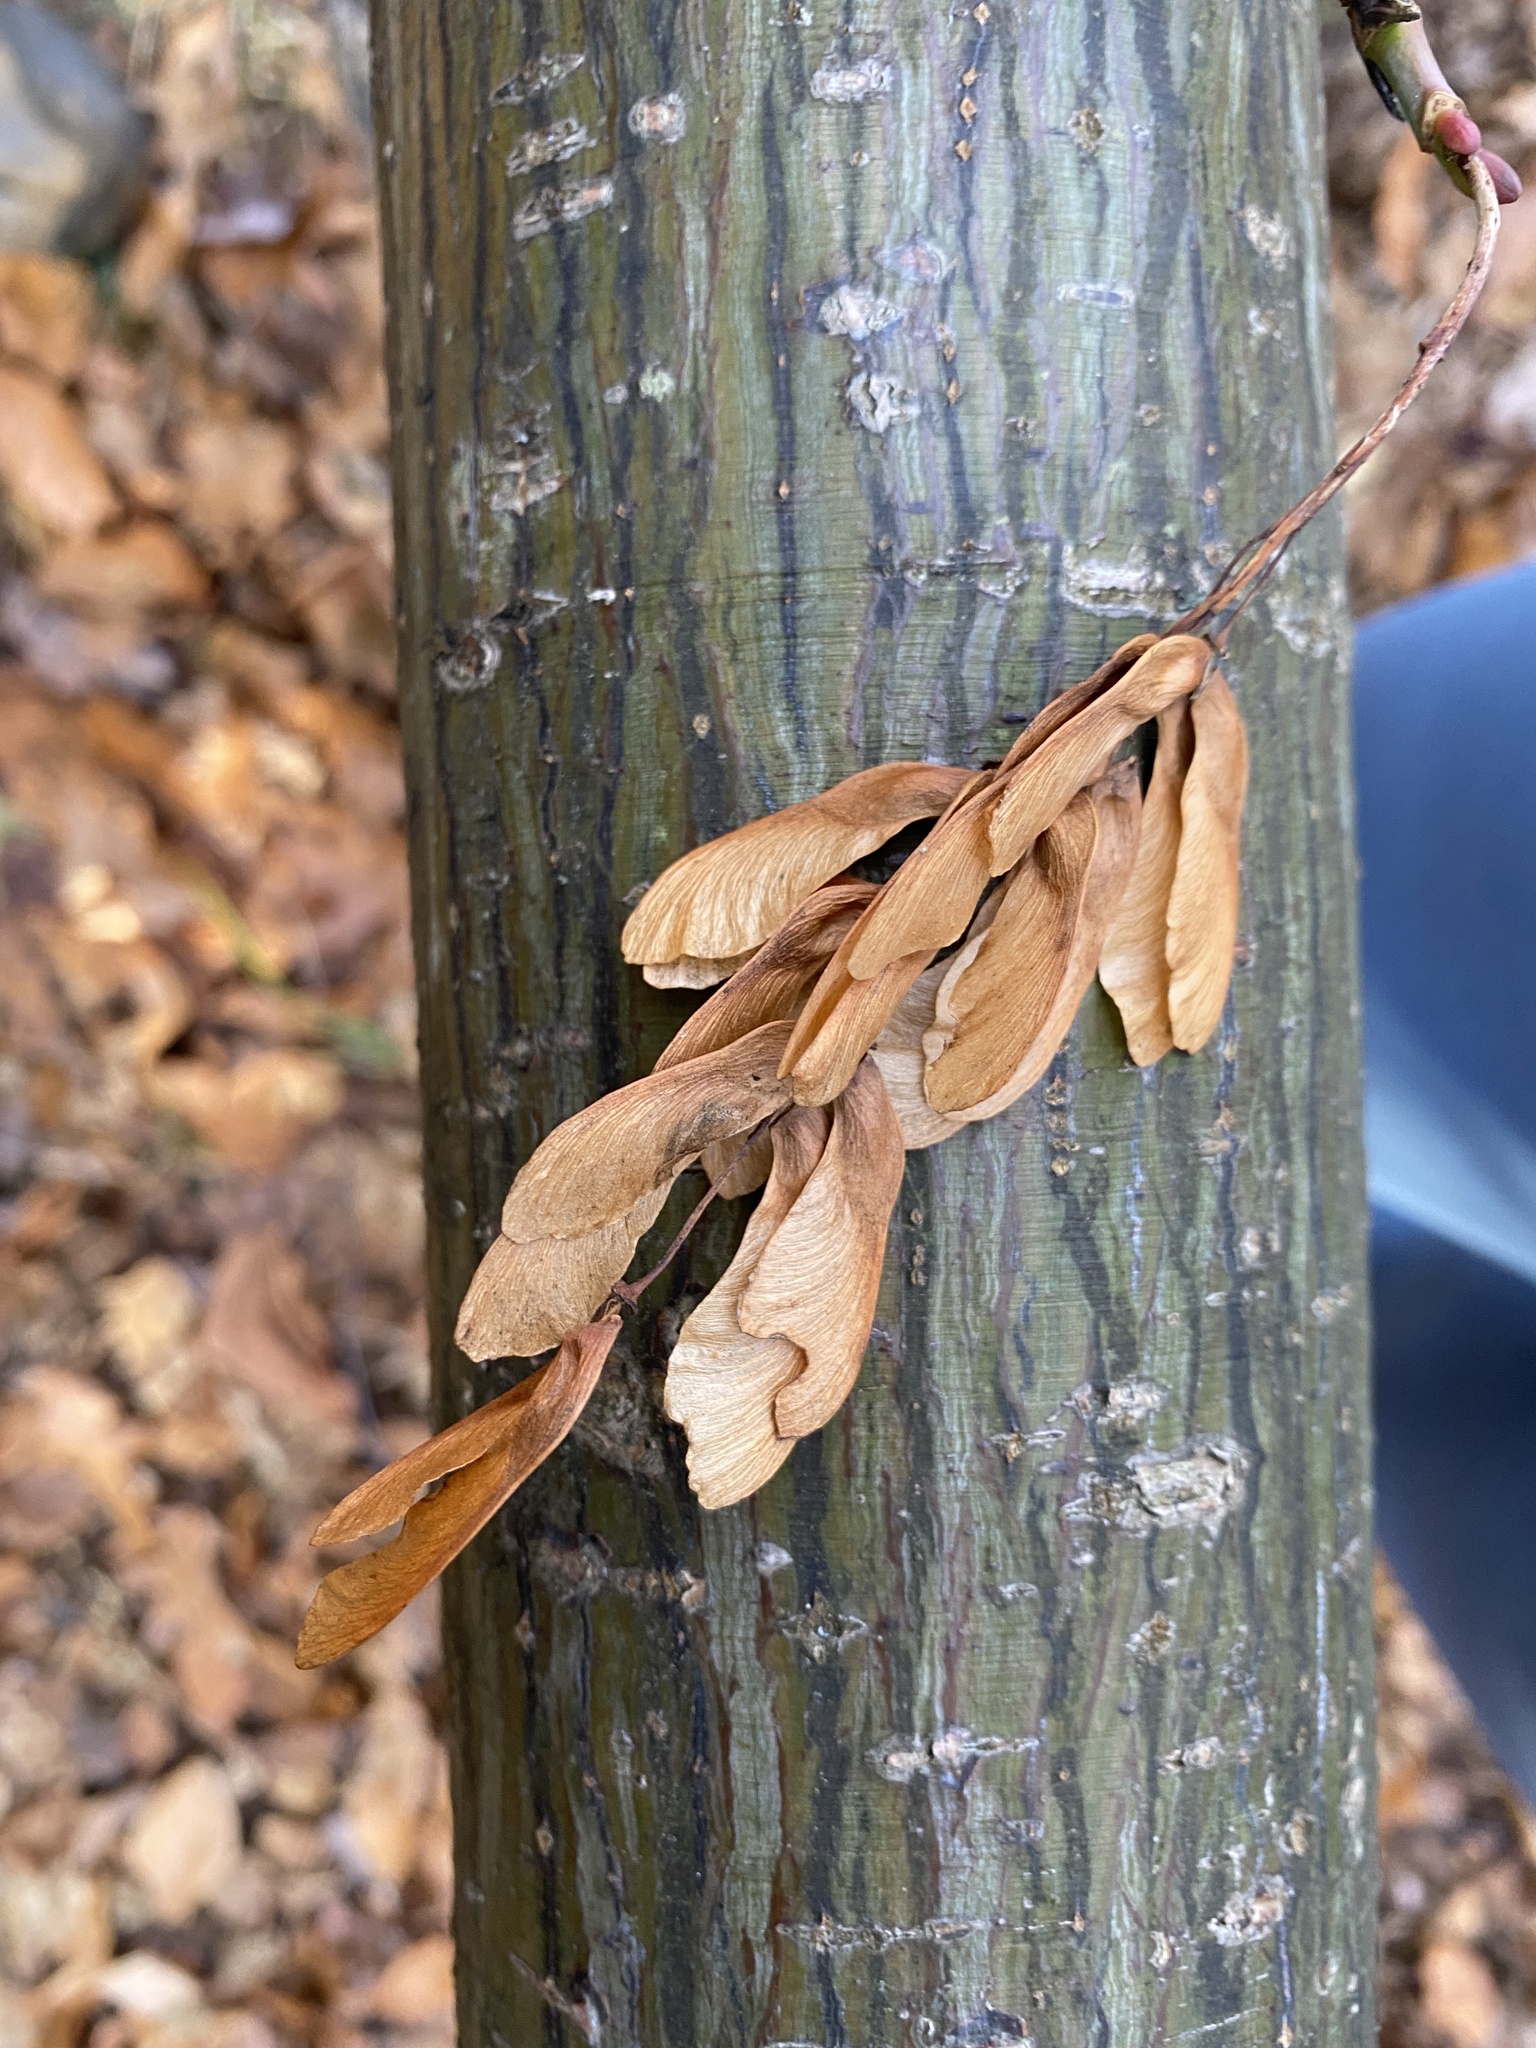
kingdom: Plantae
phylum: Tracheophyta
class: Magnoliopsida
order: Sapindales
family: Sapindaceae
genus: Acer
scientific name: Acer pensylvanicum
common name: Moosewood
